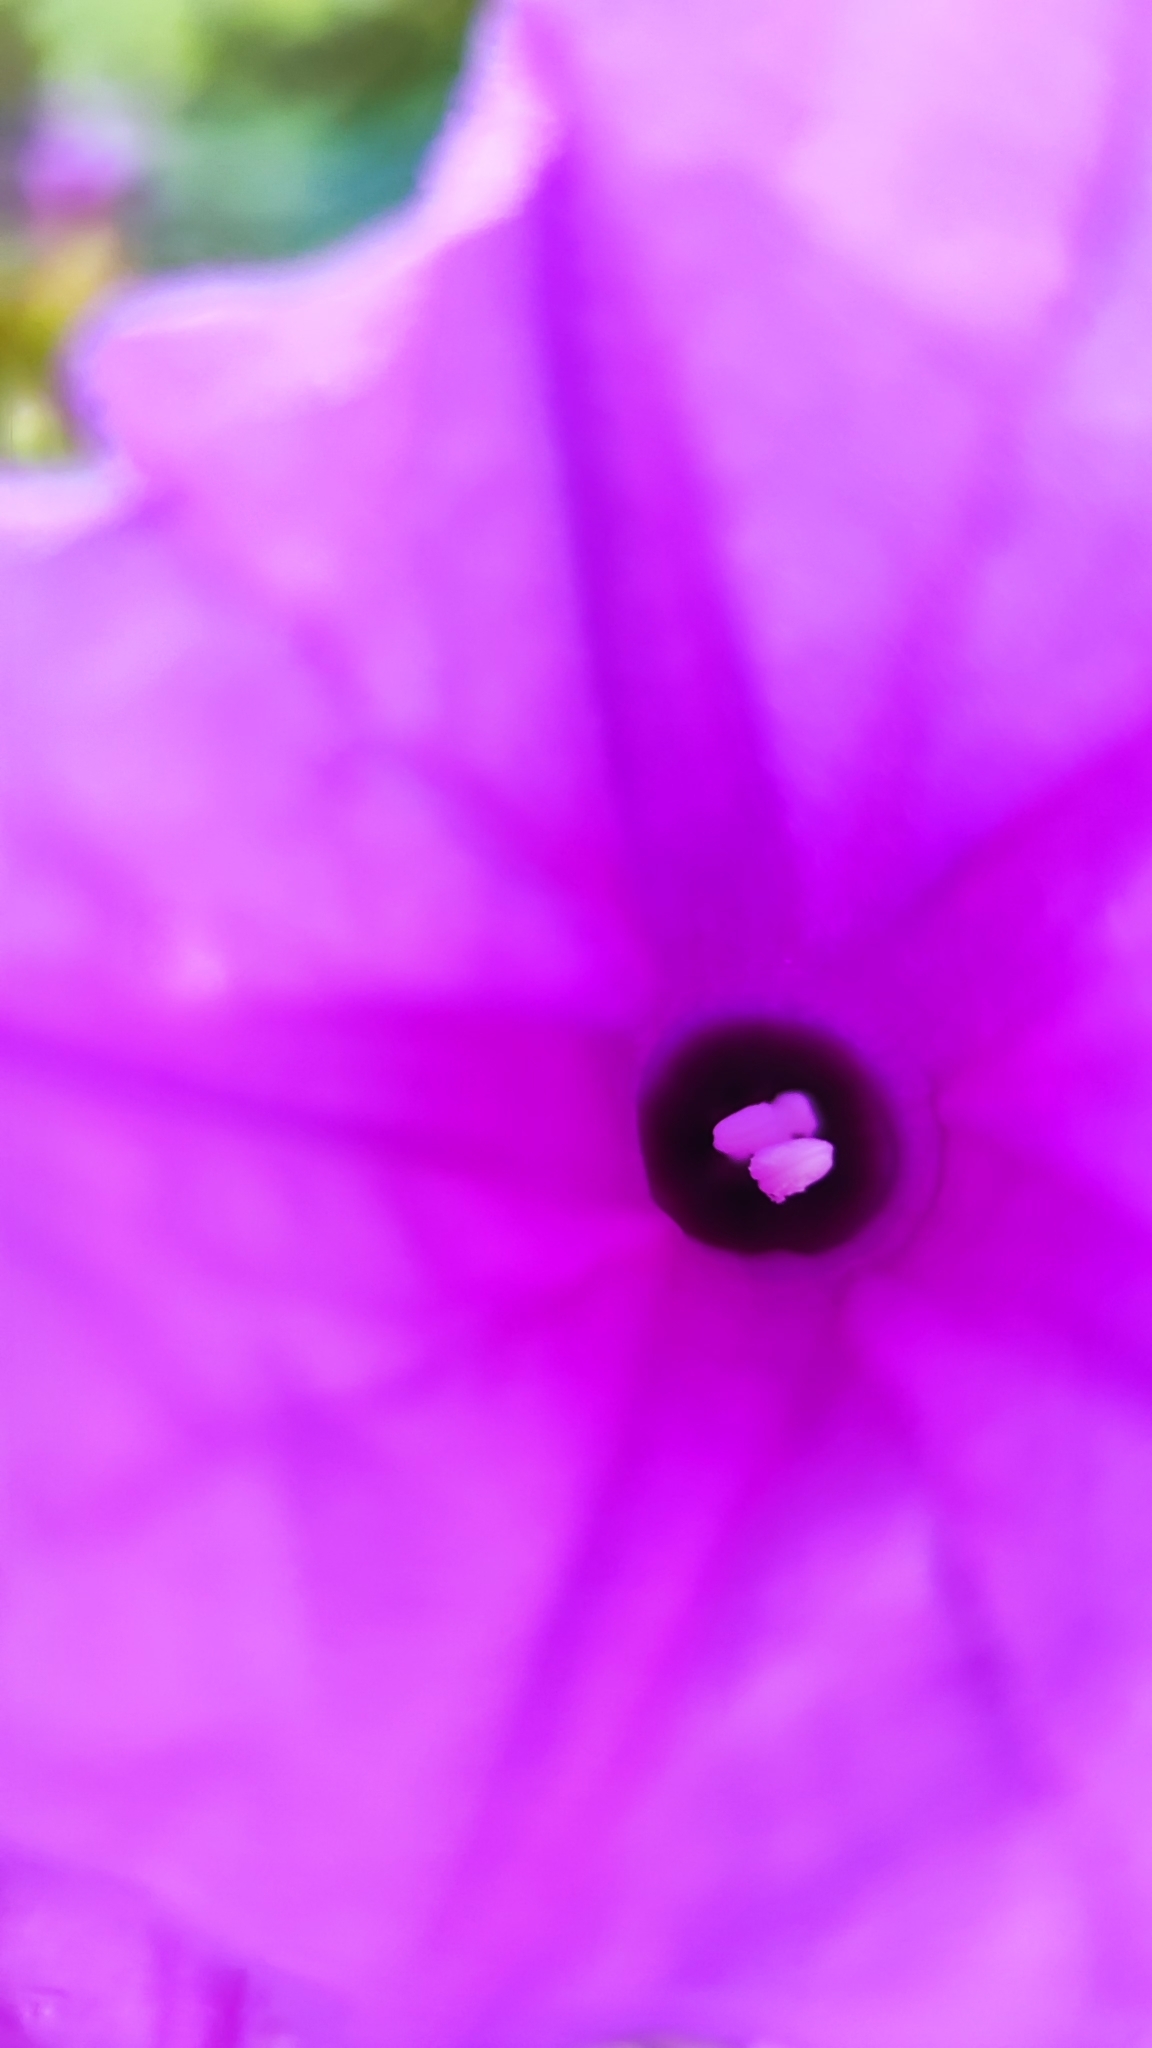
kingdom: Plantae
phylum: Tracheophyta
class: Magnoliopsida
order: Solanales
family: Convolvulaceae
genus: Ipomoea
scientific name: Ipomoea rosea
